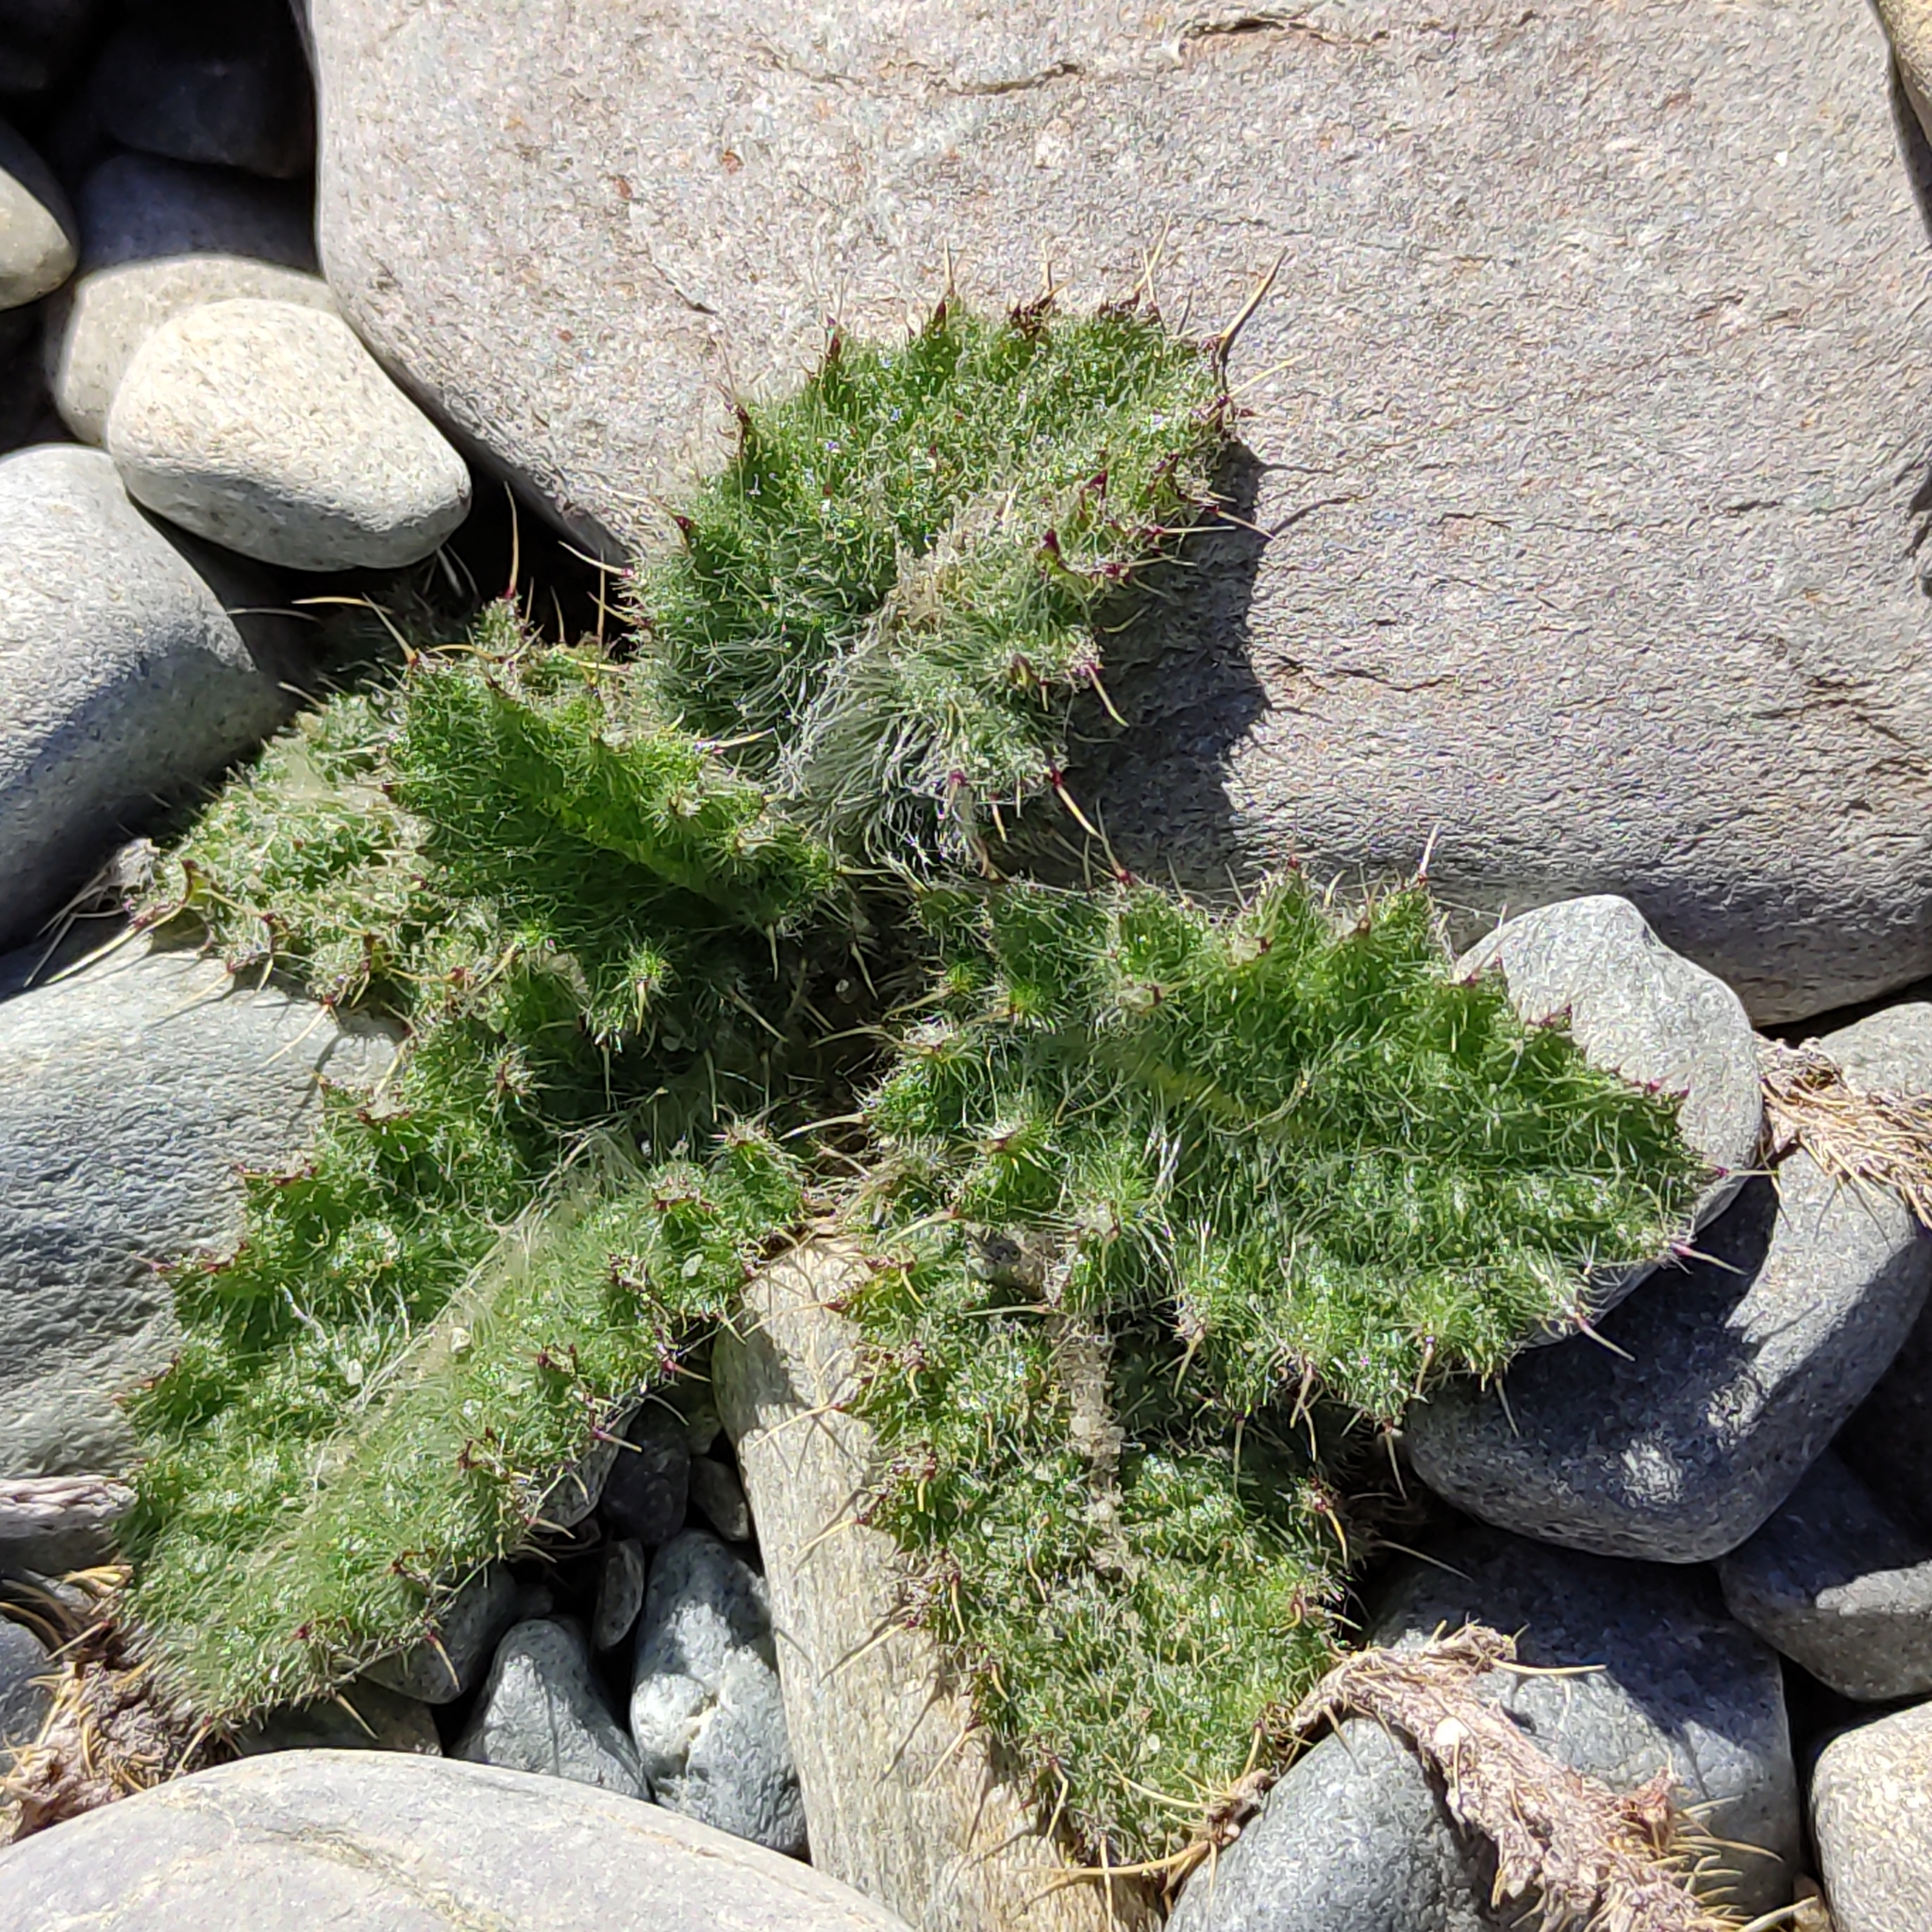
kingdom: Plantae
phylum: Tracheophyta
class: Magnoliopsida
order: Asterales
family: Asteraceae
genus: Cirsium
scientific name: Cirsium vulgare
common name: Bull thistle
